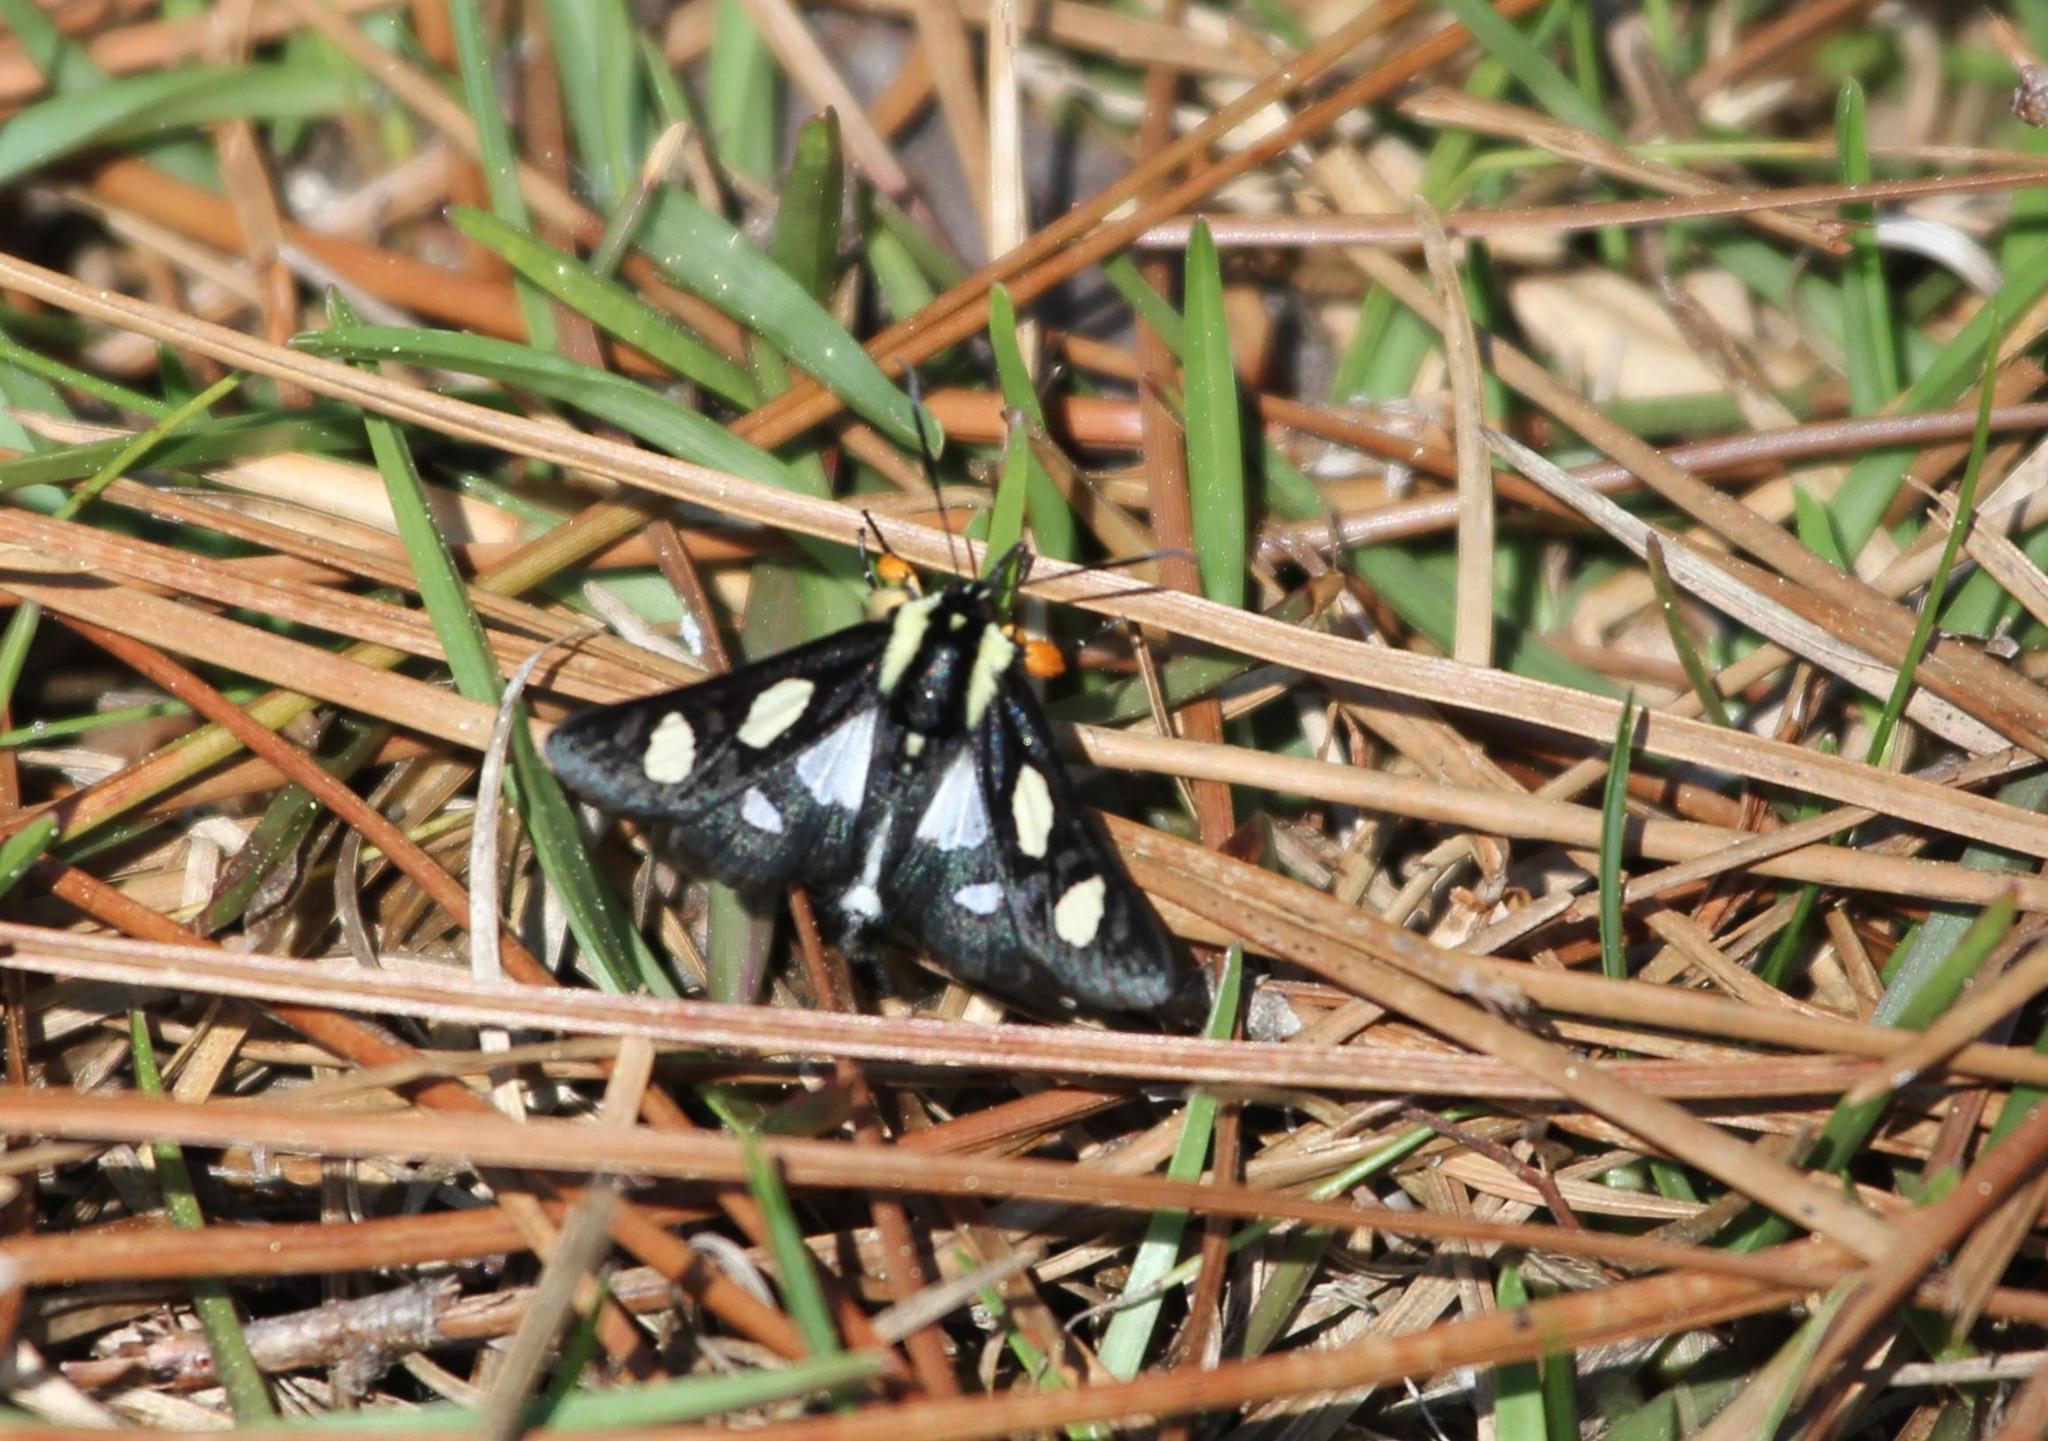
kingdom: Animalia
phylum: Arthropoda
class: Insecta
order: Lepidoptera
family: Noctuidae
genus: Alypia
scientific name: Alypia octomaculata
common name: Eight-spotted forester
